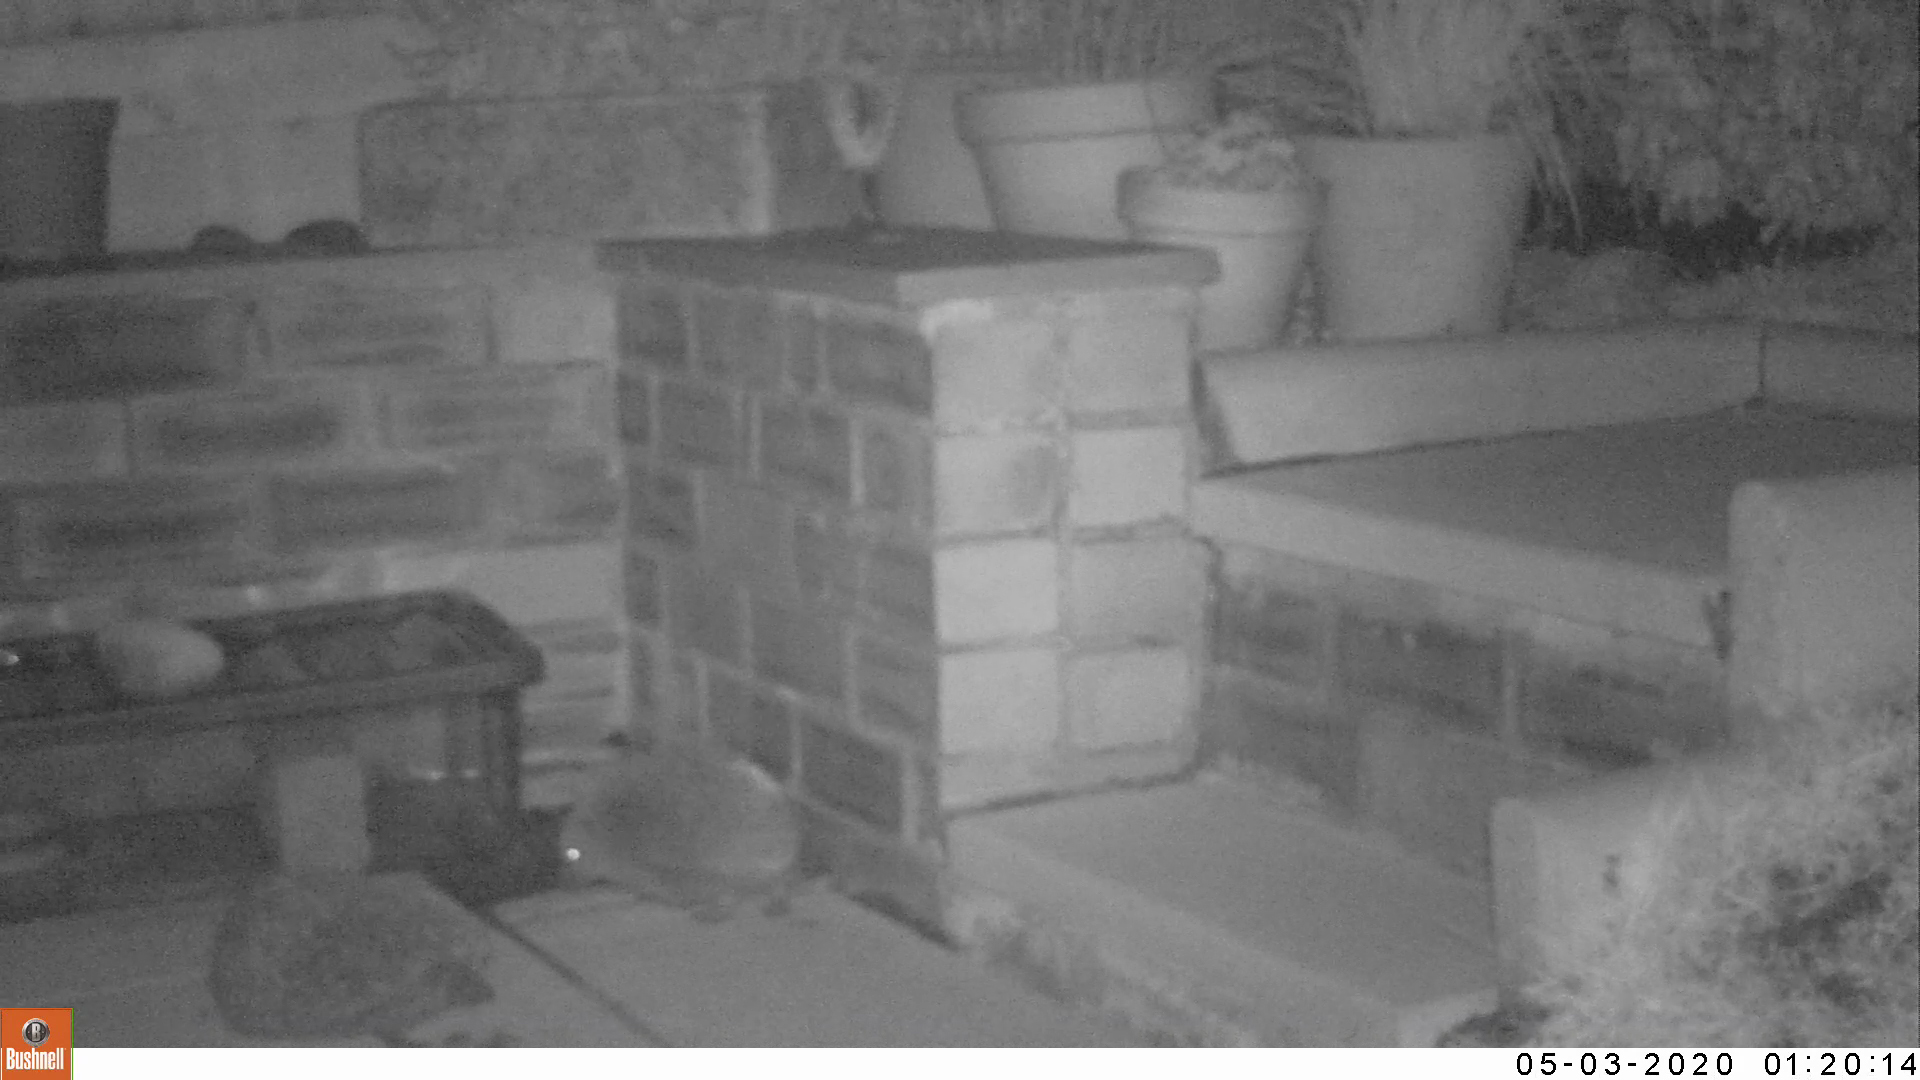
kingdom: Animalia
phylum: Chordata
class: Mammalia
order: Erinaceomorpha
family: Erinaceidae
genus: Erinaceus
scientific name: Erinaceus europaeus
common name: West european hedgehog
